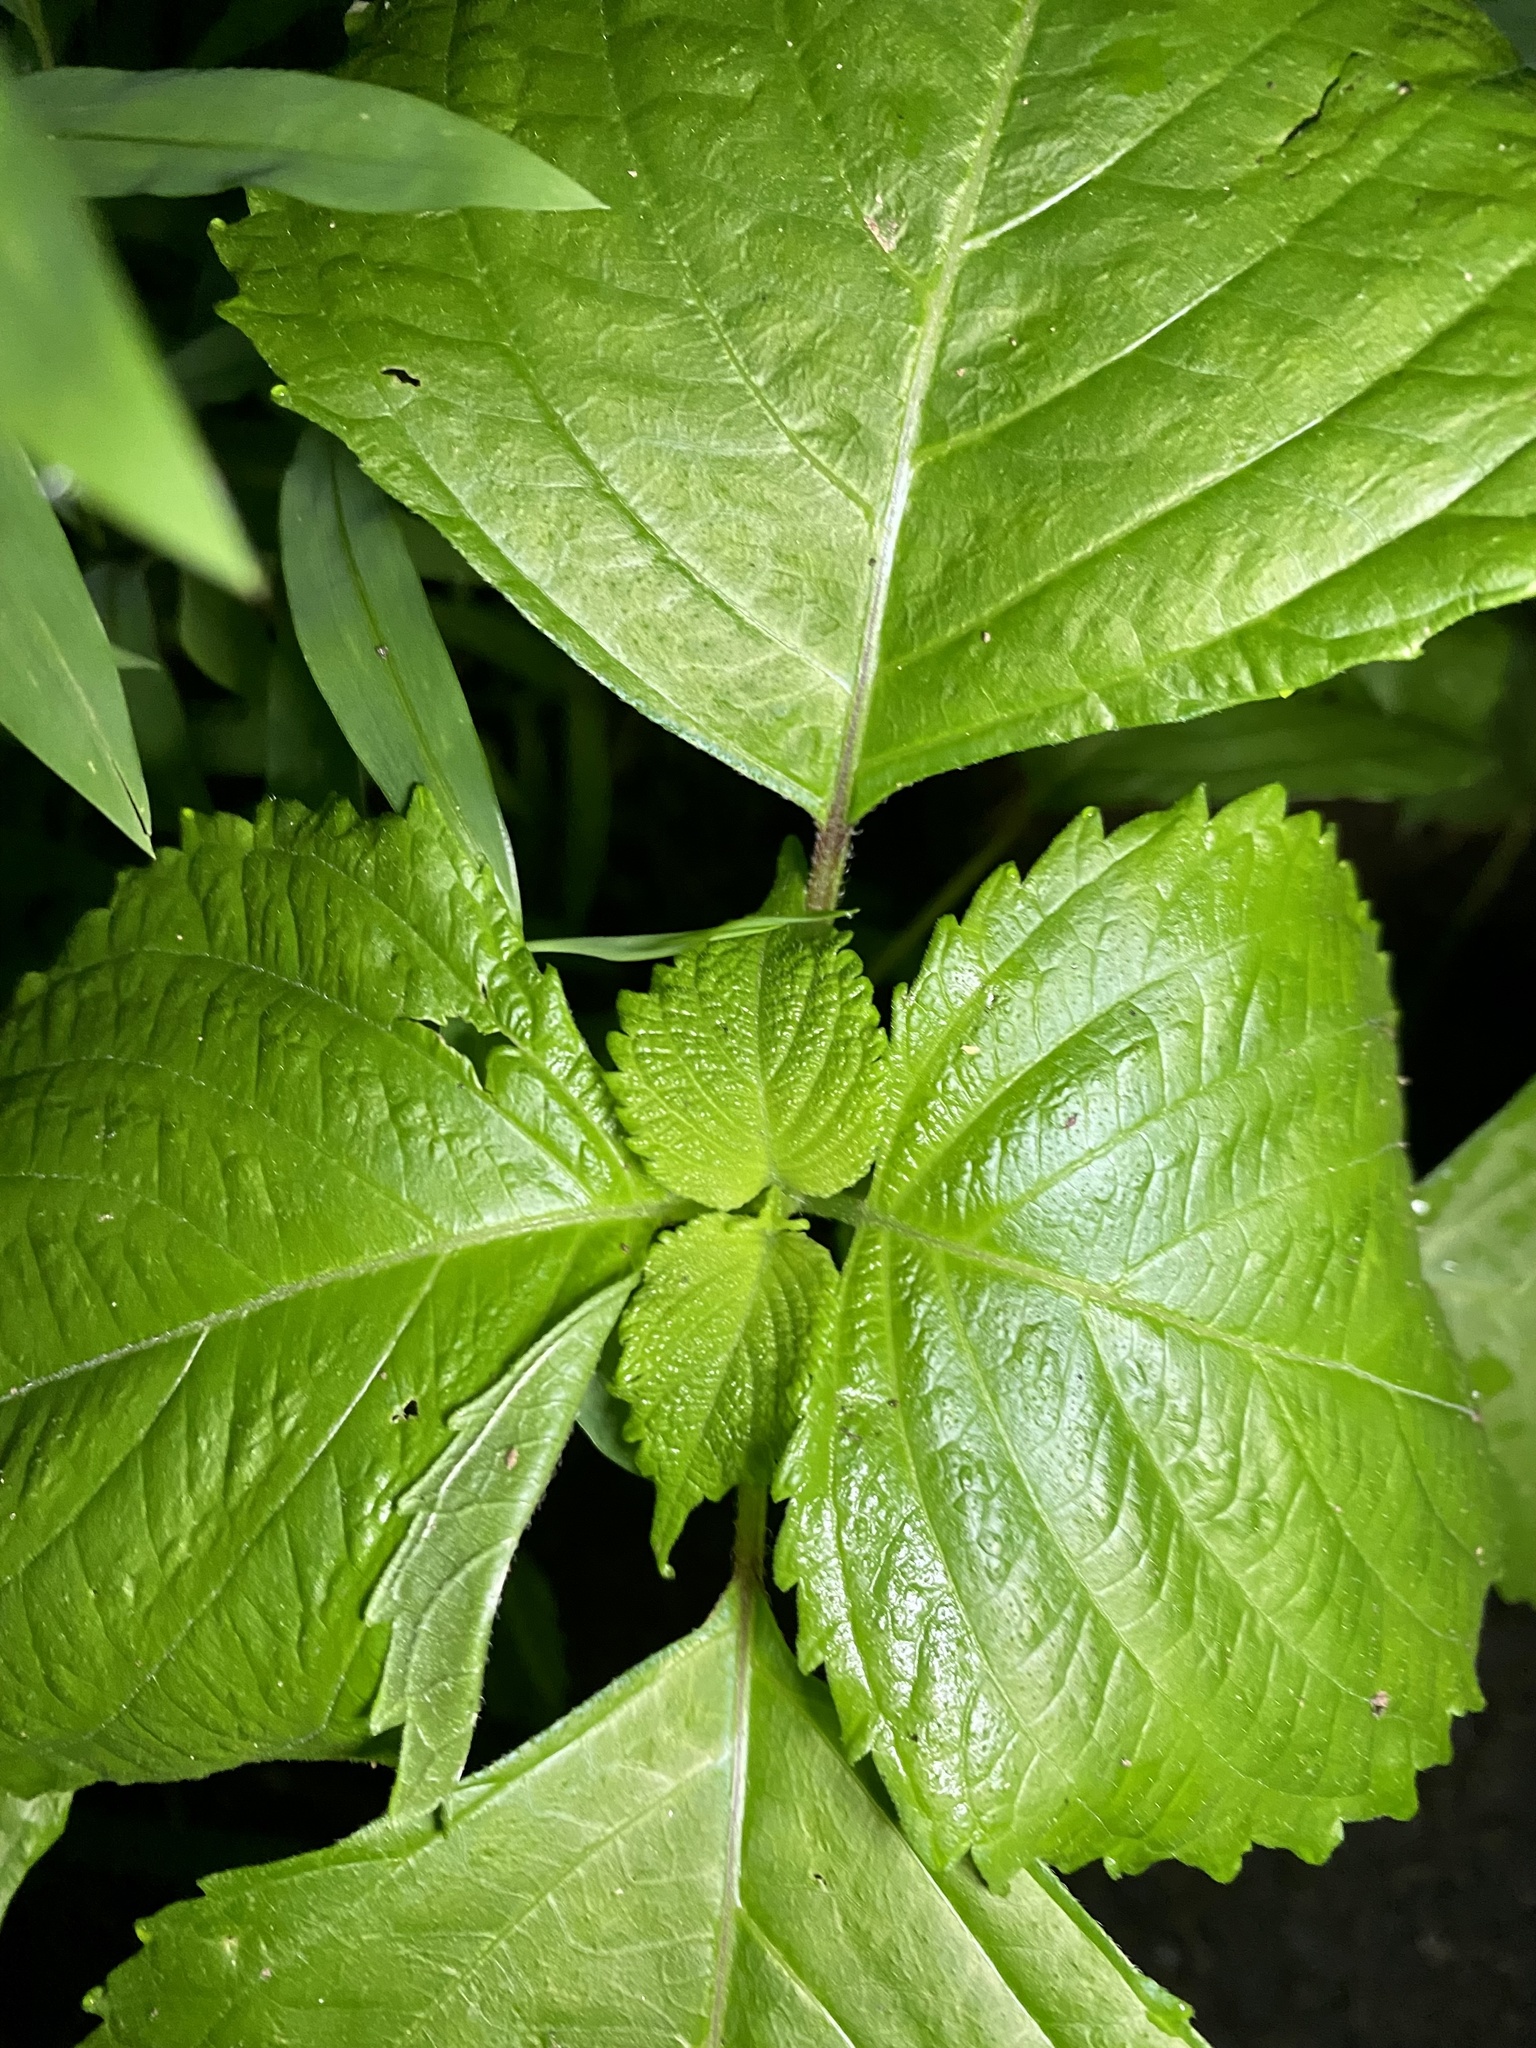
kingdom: Plantae
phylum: Tracheophyta
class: Magnoliopsida
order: Lamiales
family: Lamiaceae
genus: Perilla
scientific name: Perilla frutescens
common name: Perilla
